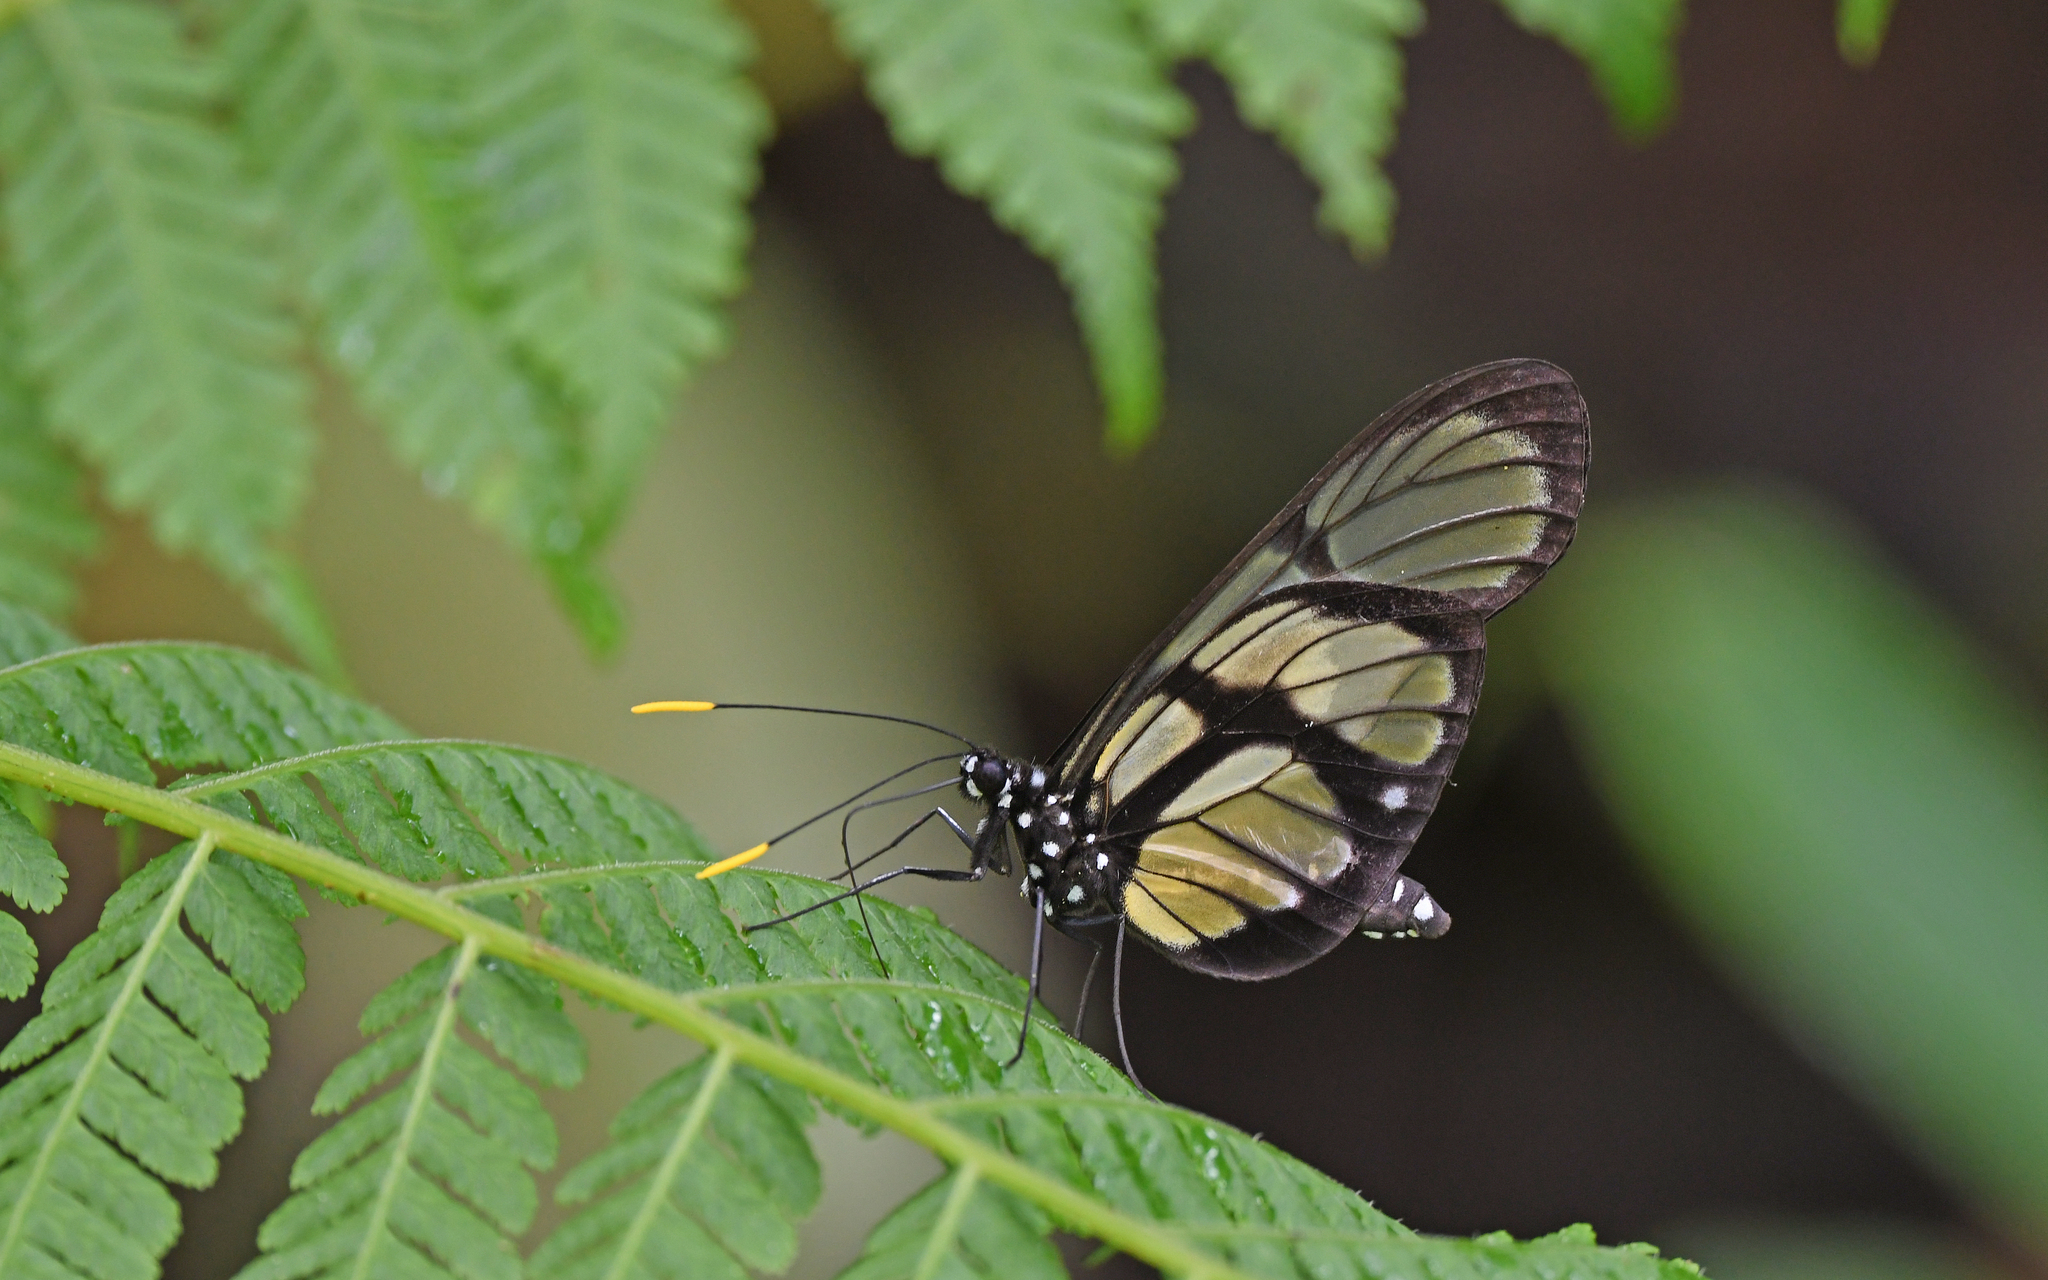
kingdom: Animalia
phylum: Arthropoda
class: Insecta
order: Lepidoptera
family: Pieridae
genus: Patia
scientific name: Patia orise
